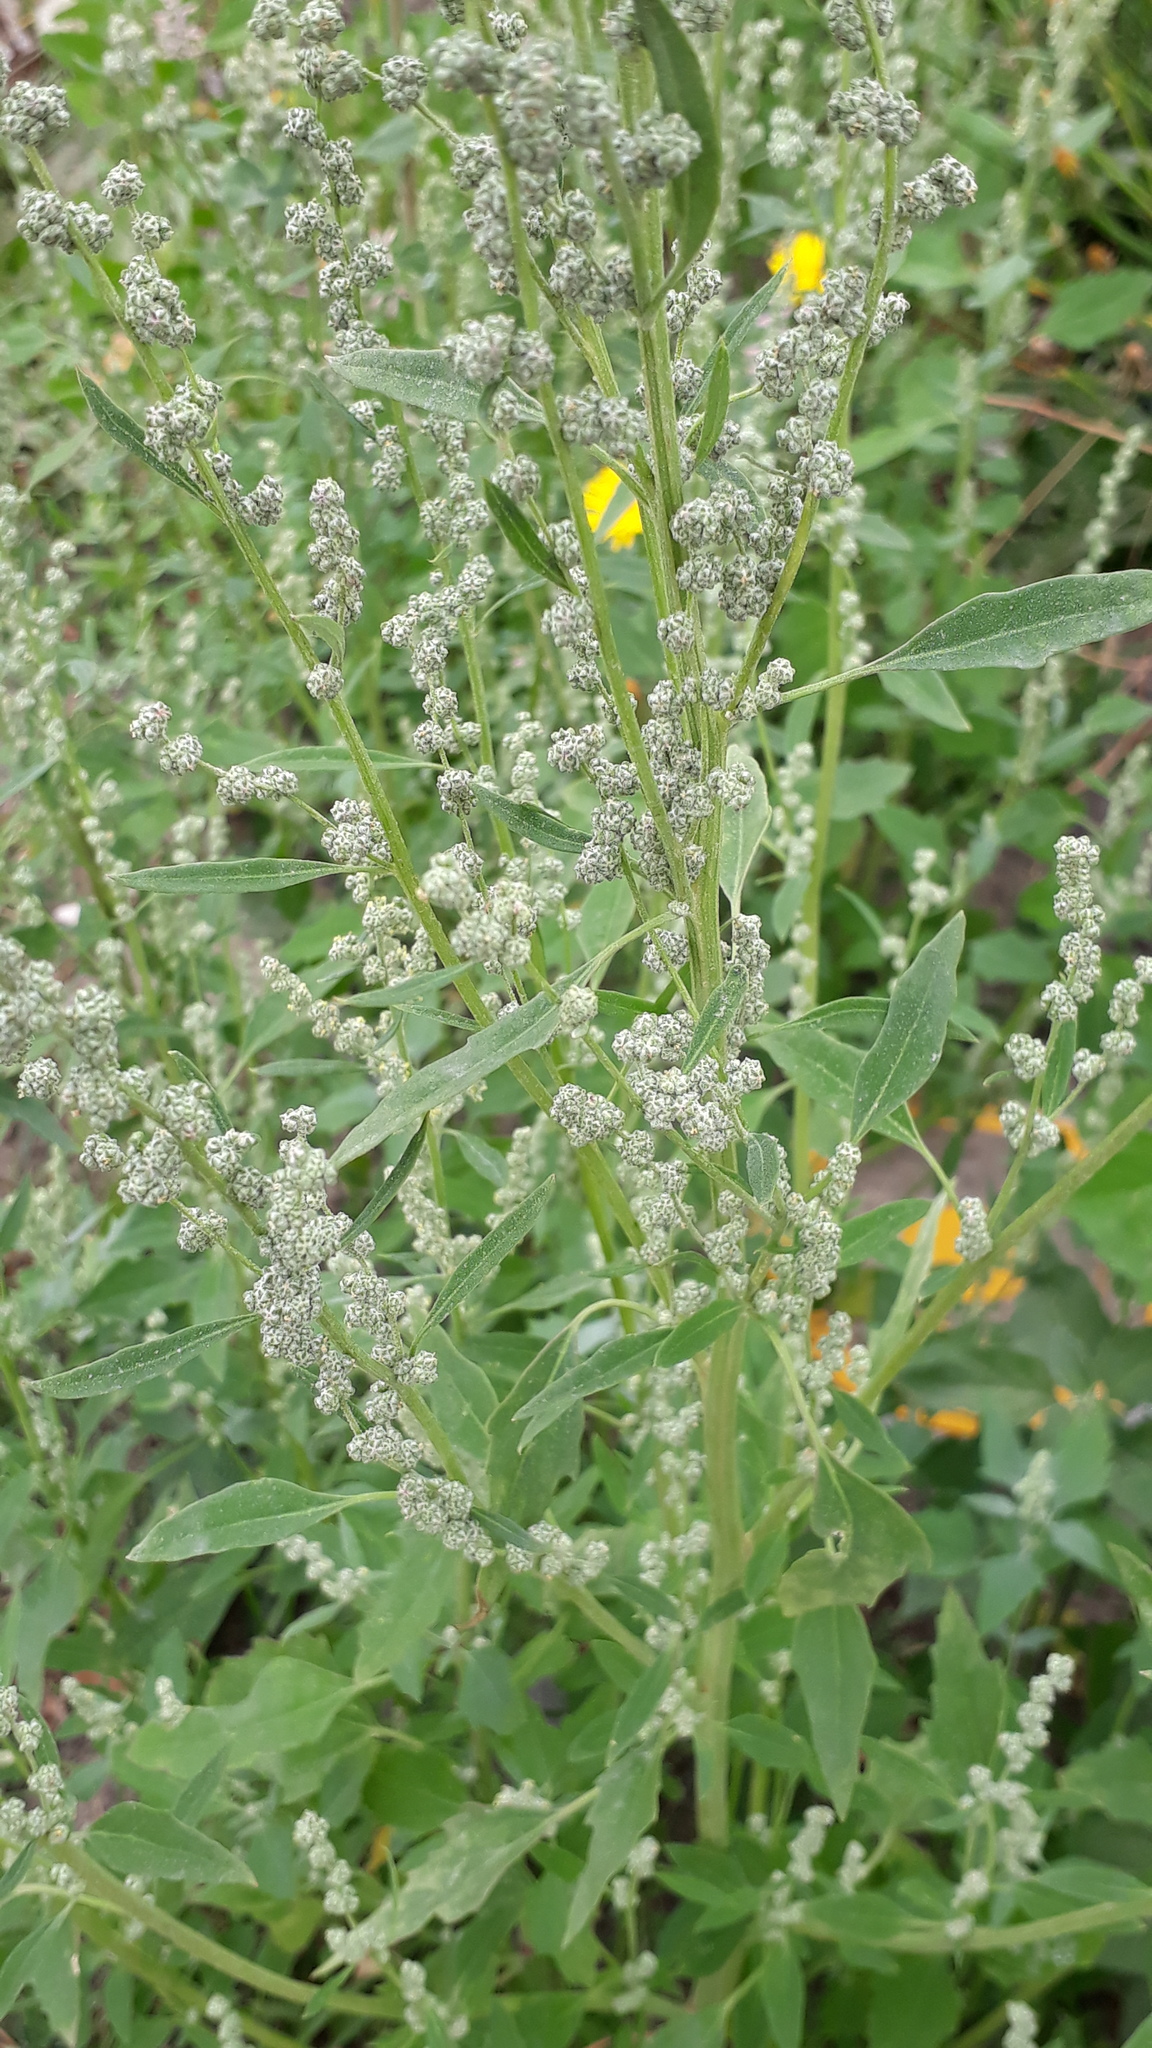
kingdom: Plantae
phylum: Tracheophyta
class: Magnoliopsida
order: Caryophyllales
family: Amaranthaceae
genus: Chenopodium
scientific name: Chenopodium album
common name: Fat-hen
